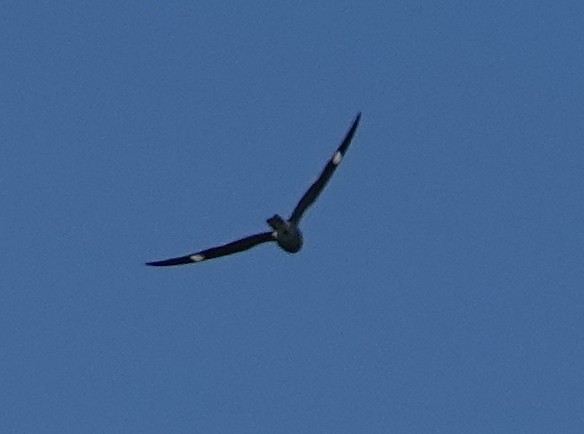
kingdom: Animalia
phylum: Chordata
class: Aves
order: Caprimulgiformes
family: Caprimulgidae
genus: Chordeiles
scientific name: Chordeiles minor
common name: Common nighthawk
